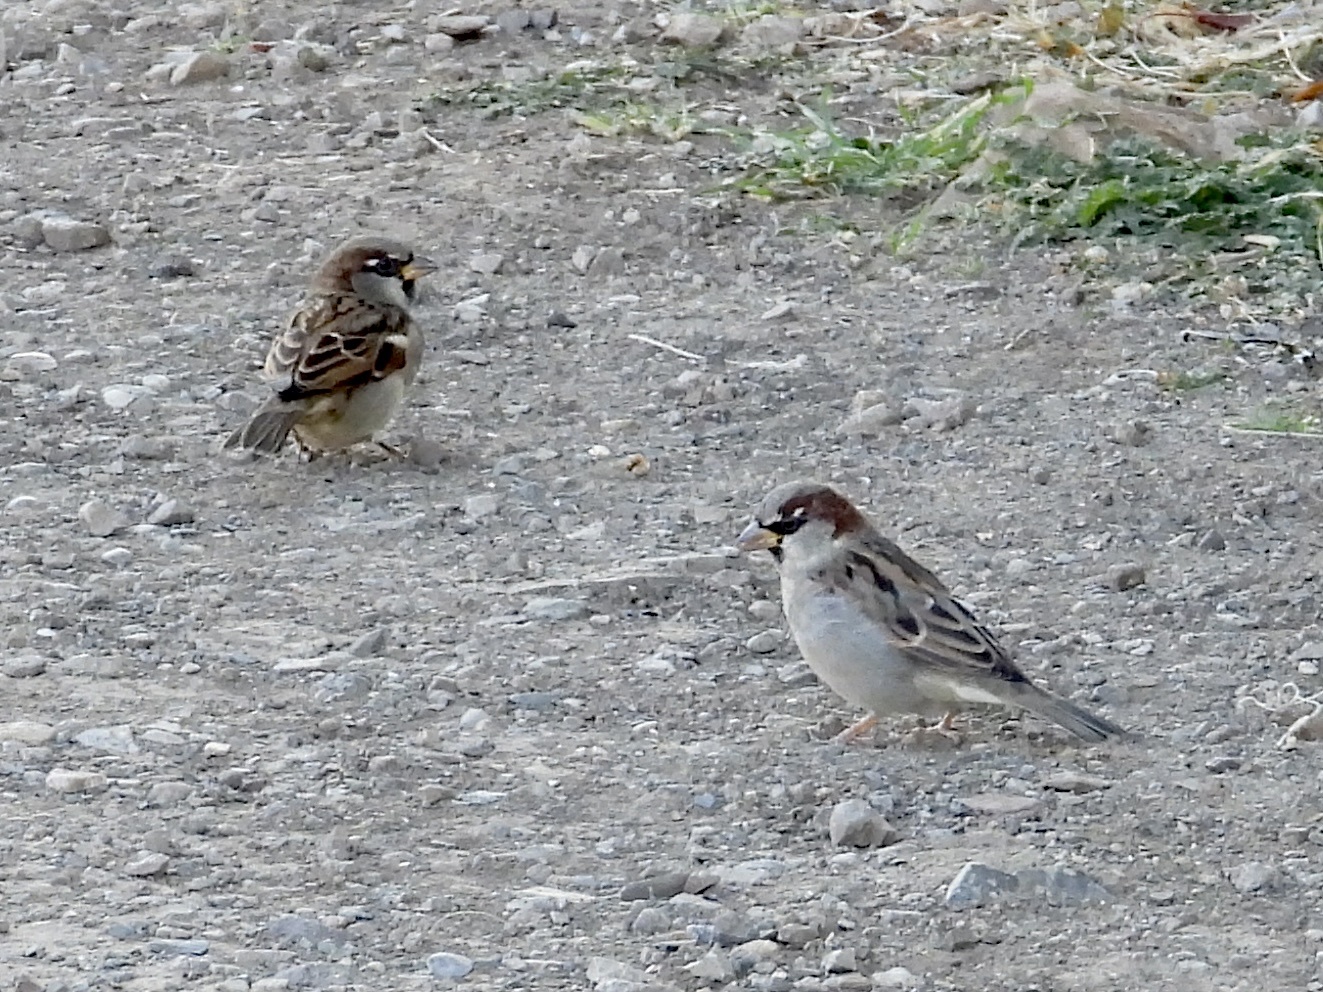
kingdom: Animalia
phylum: Chordata
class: Aves
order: Passeriformes
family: Passeridae
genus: Passer
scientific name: Passer domesticus
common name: House sparrow
